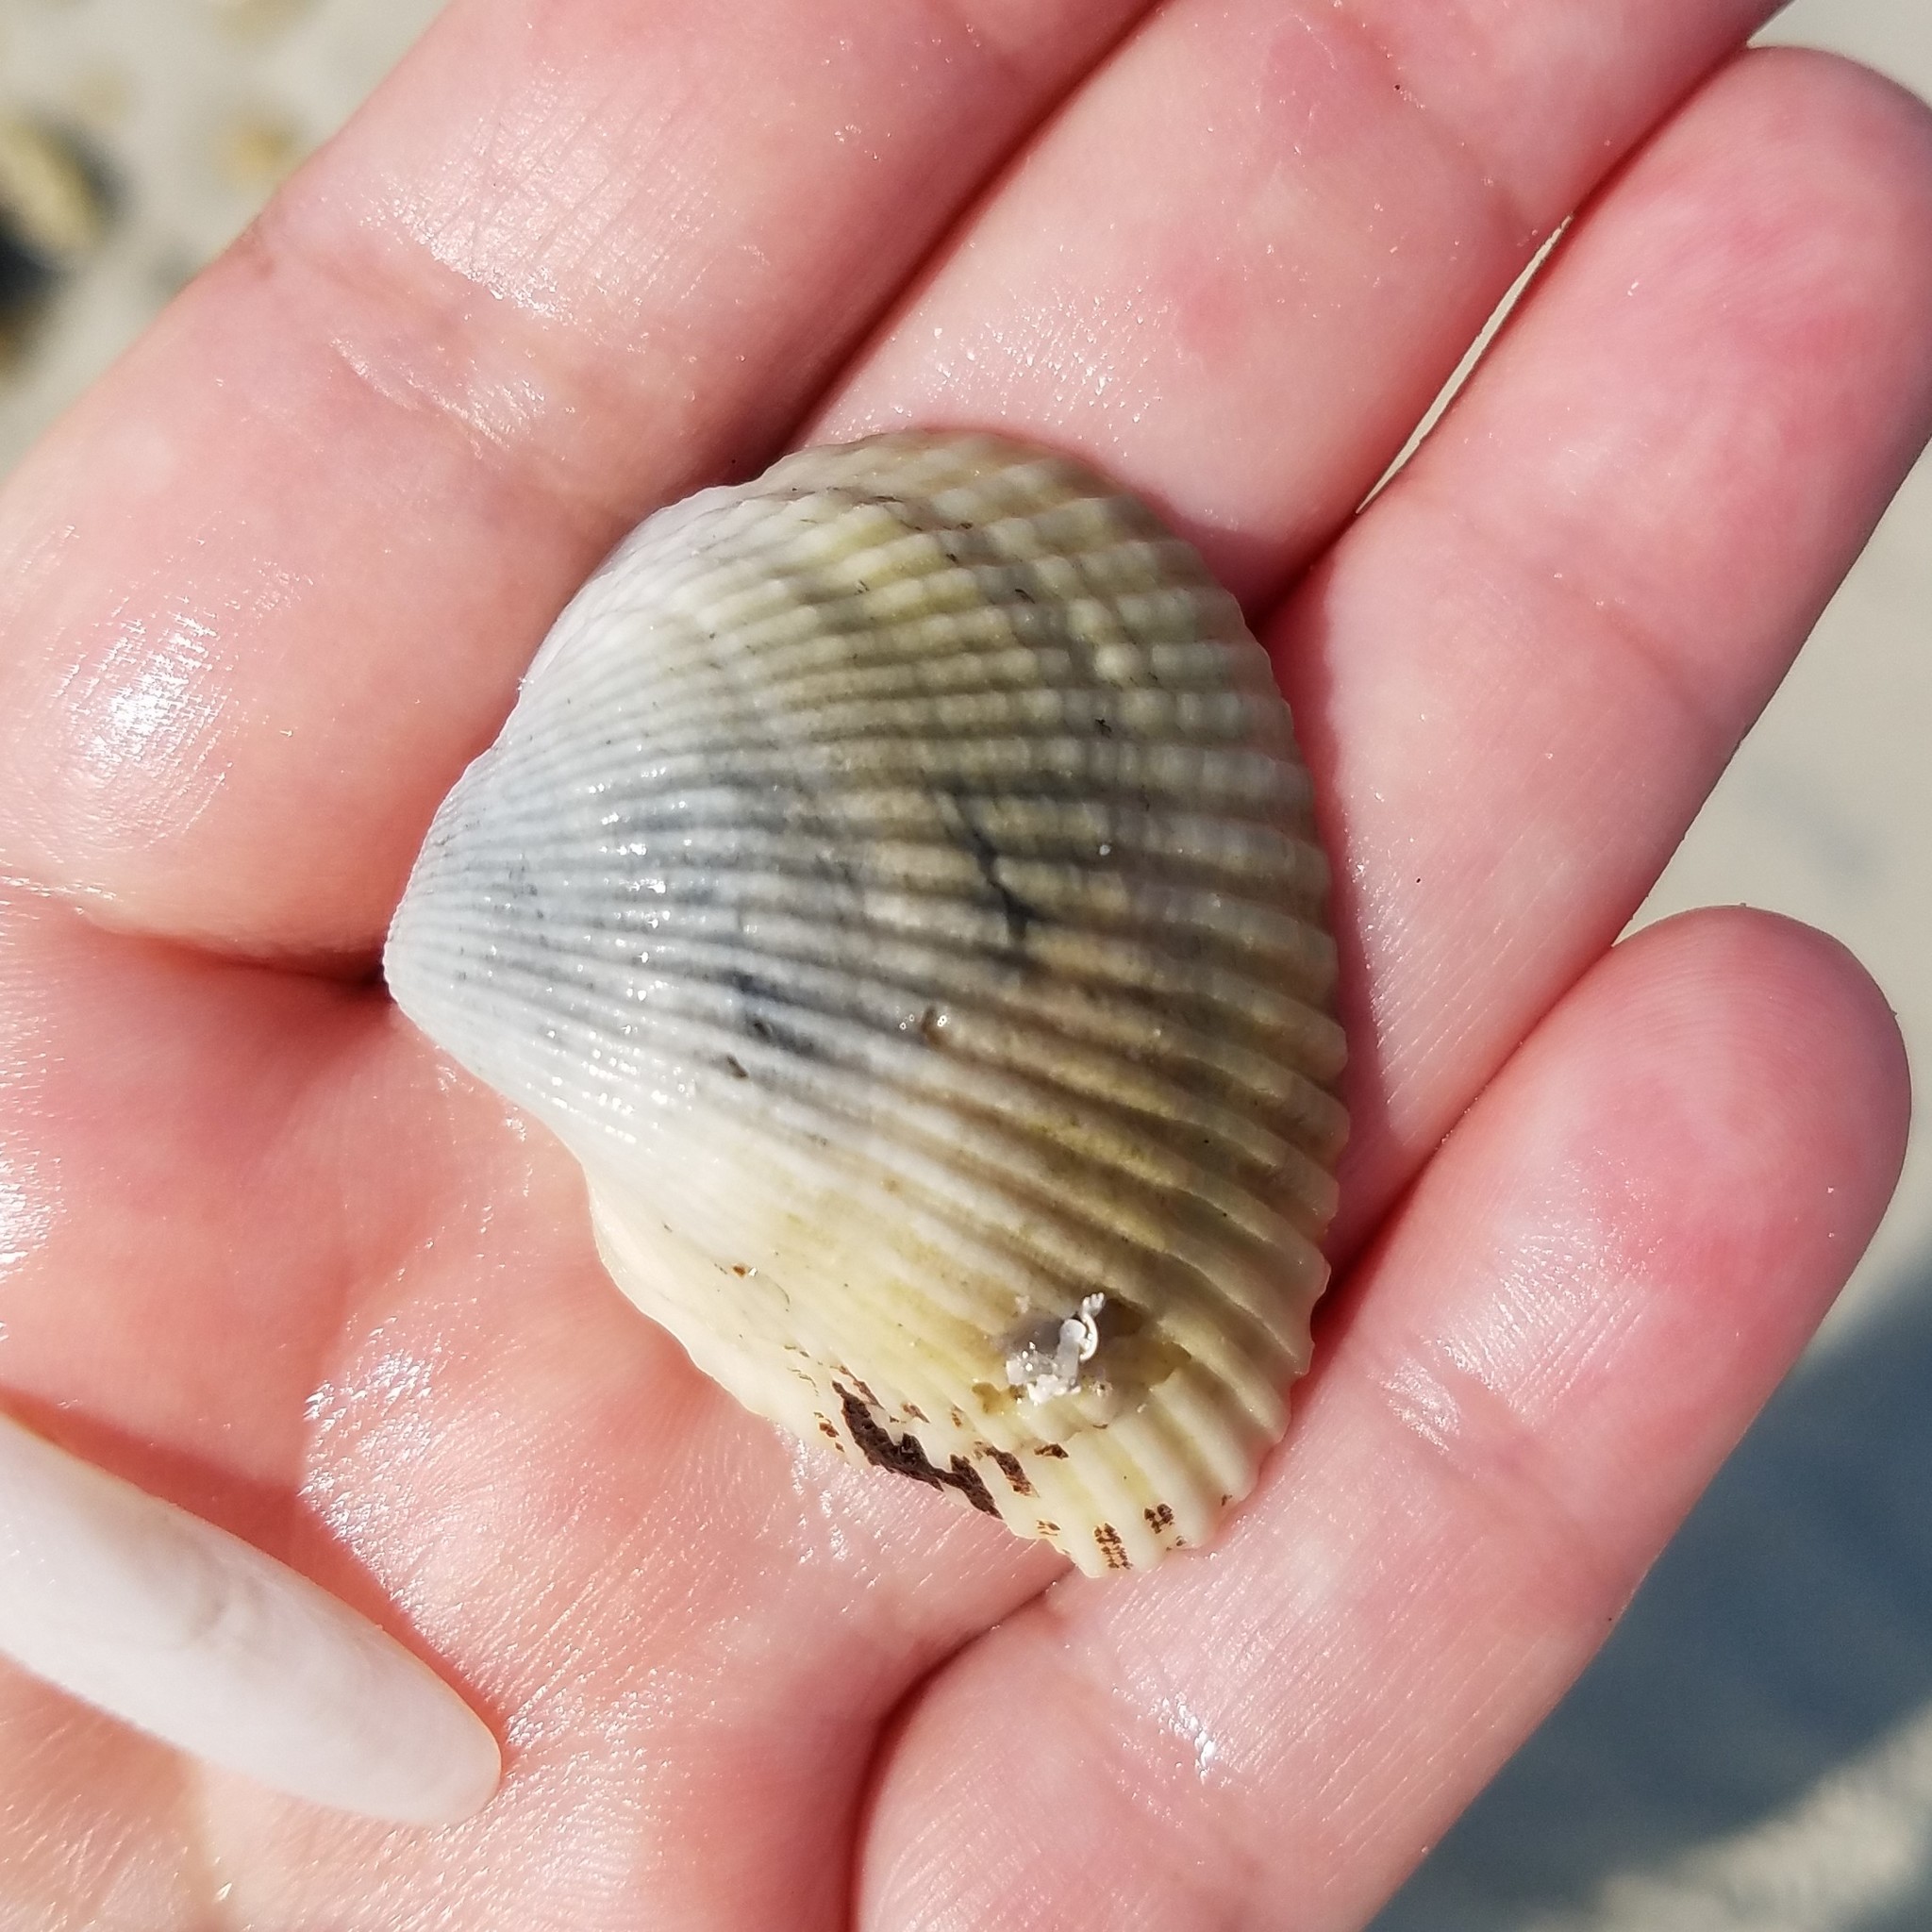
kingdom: Animalia
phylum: Mollusca
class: Bivalvia
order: Arcida
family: Noetiidae
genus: Noetia
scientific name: Noetia ponderosa
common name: Ponderous ark
